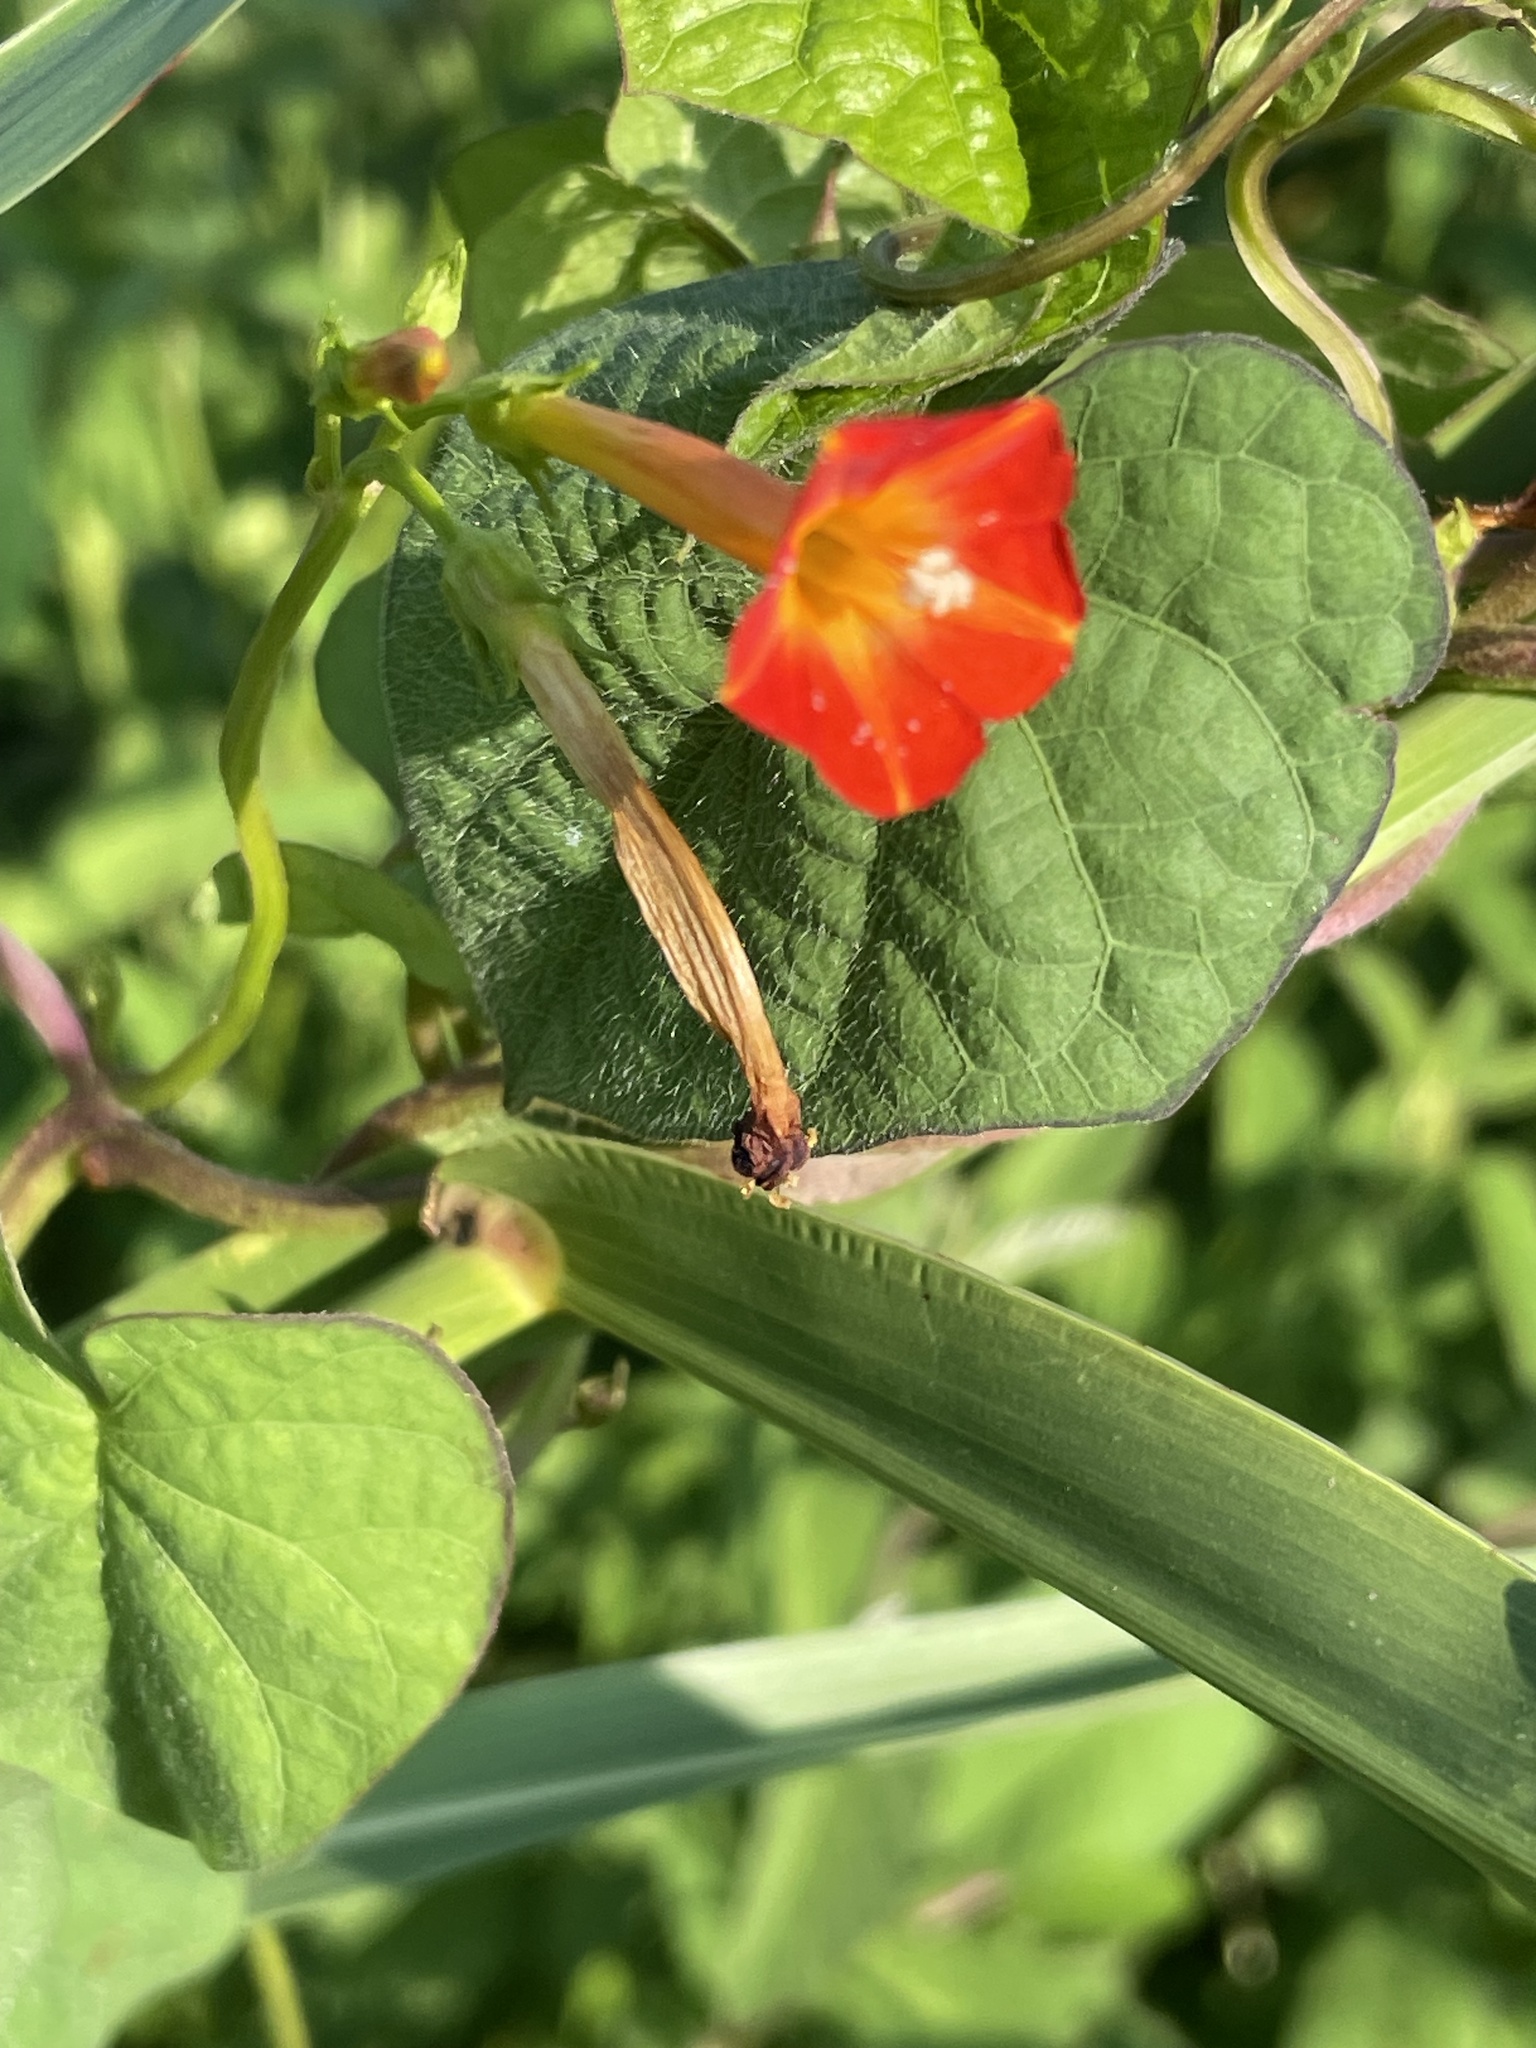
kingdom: Plantae
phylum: Tracheophyta
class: Magnoliopsida
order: Solanales
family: Convolvulaceae
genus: Ipomoea
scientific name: Ipomoea coccinea
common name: Red morning-glory
